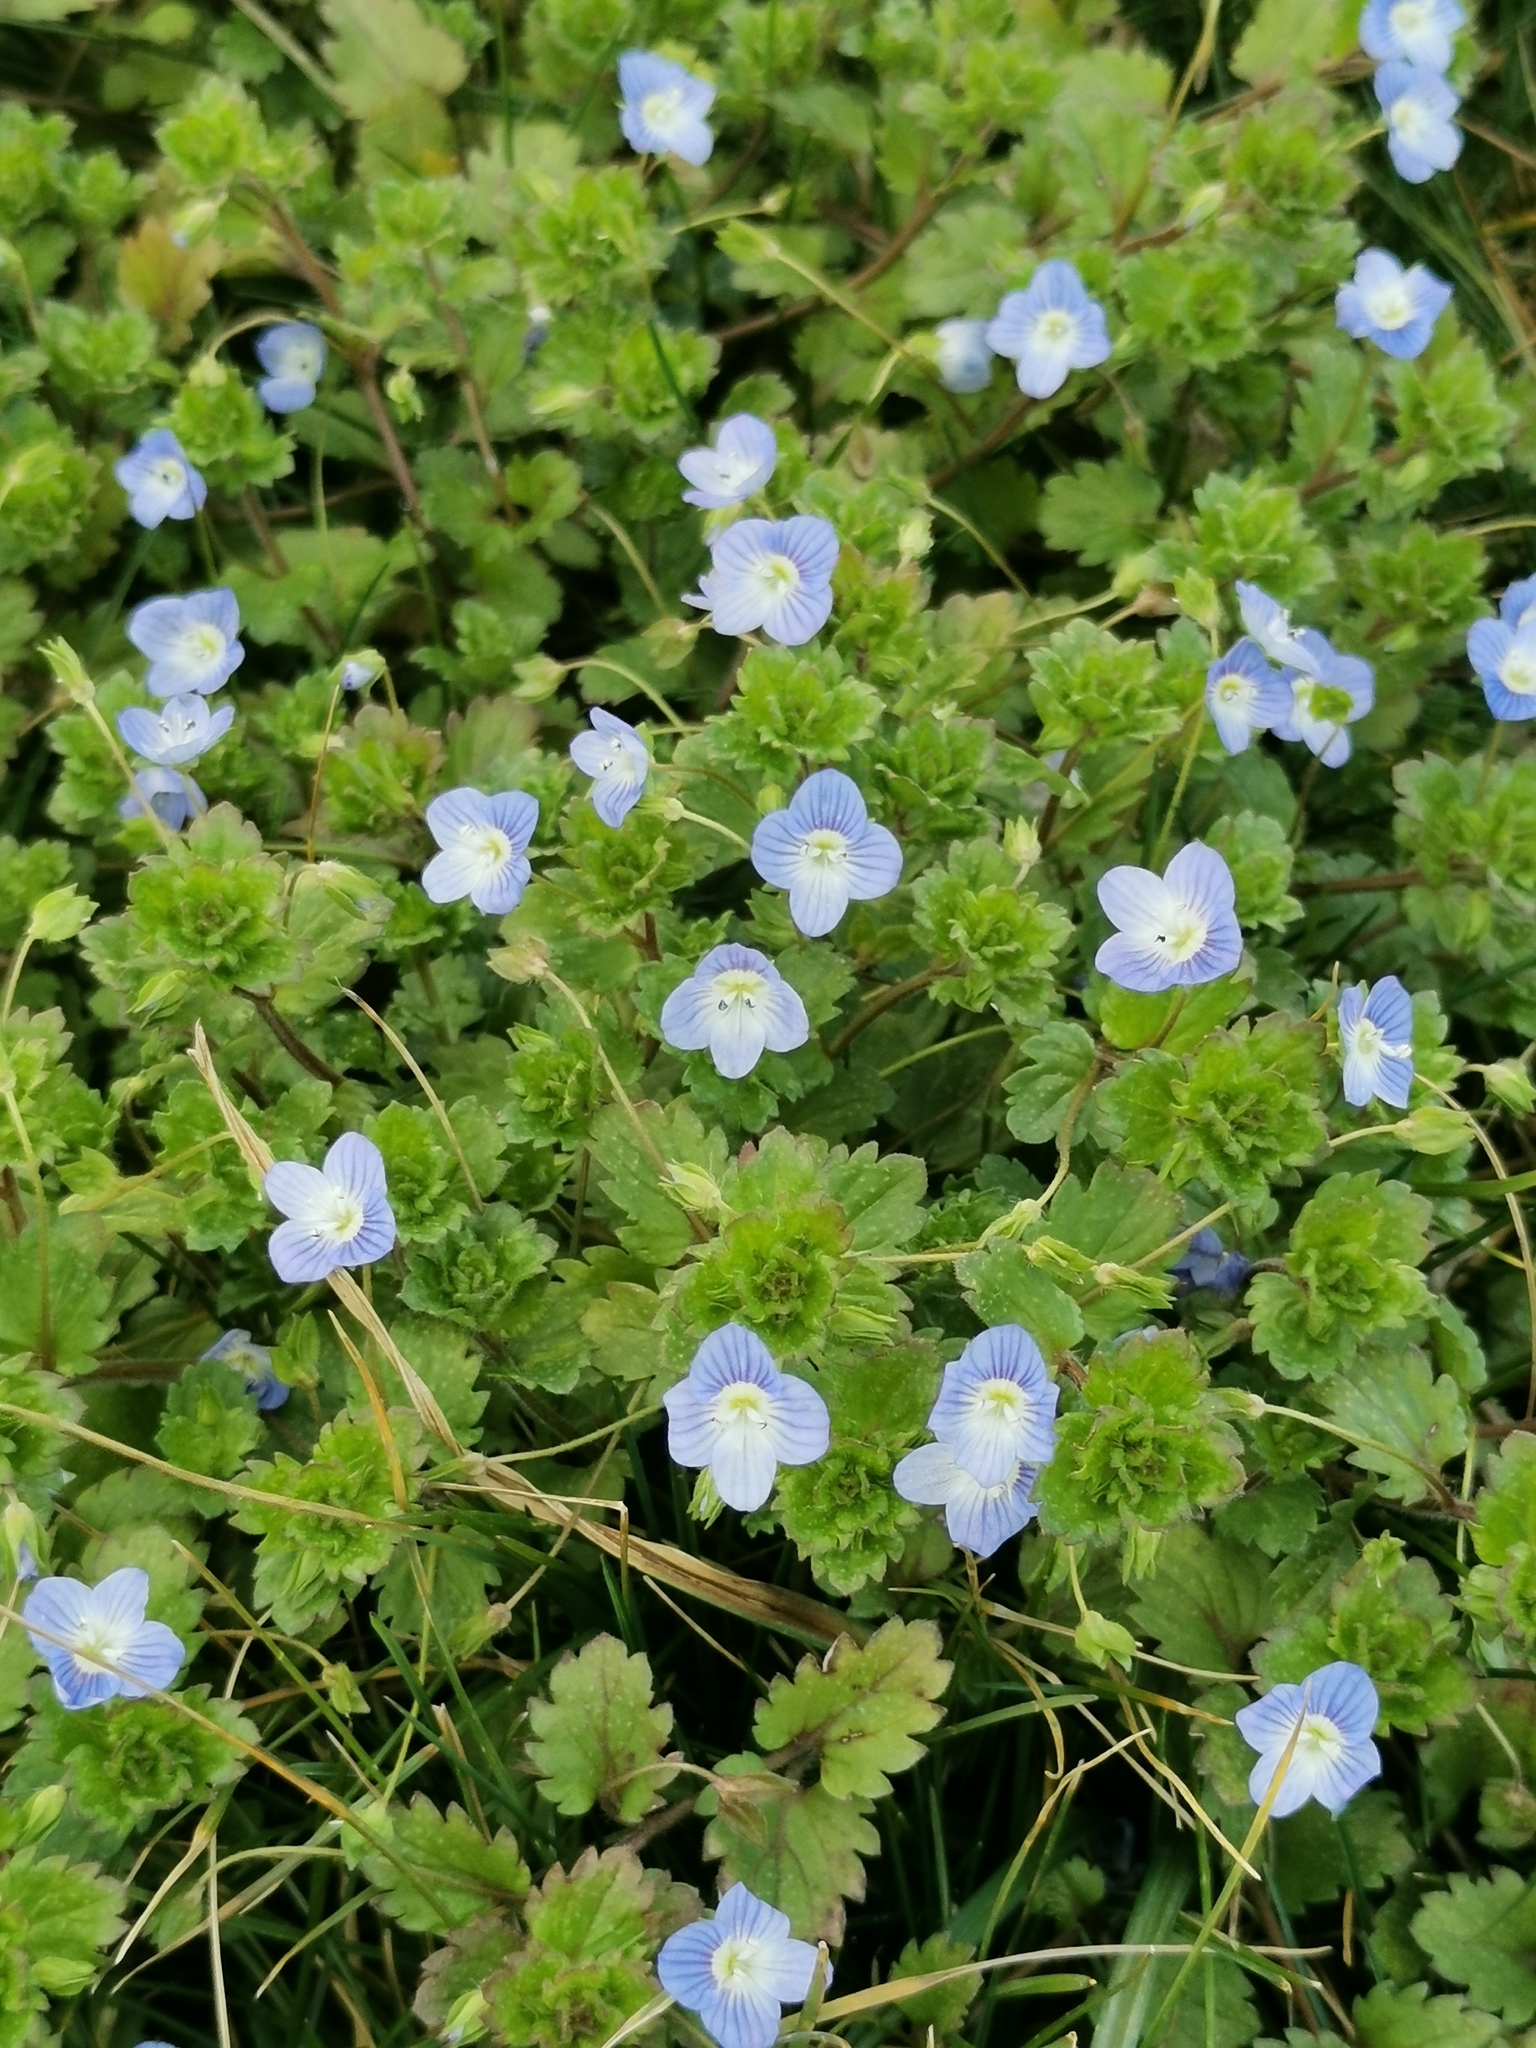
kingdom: Plantae
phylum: Tracheophyta
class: Magnoliopsida
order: Lamiales
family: Plantaginaceae
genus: Veronica
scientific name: Veronica persica
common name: Common field-speedwell
